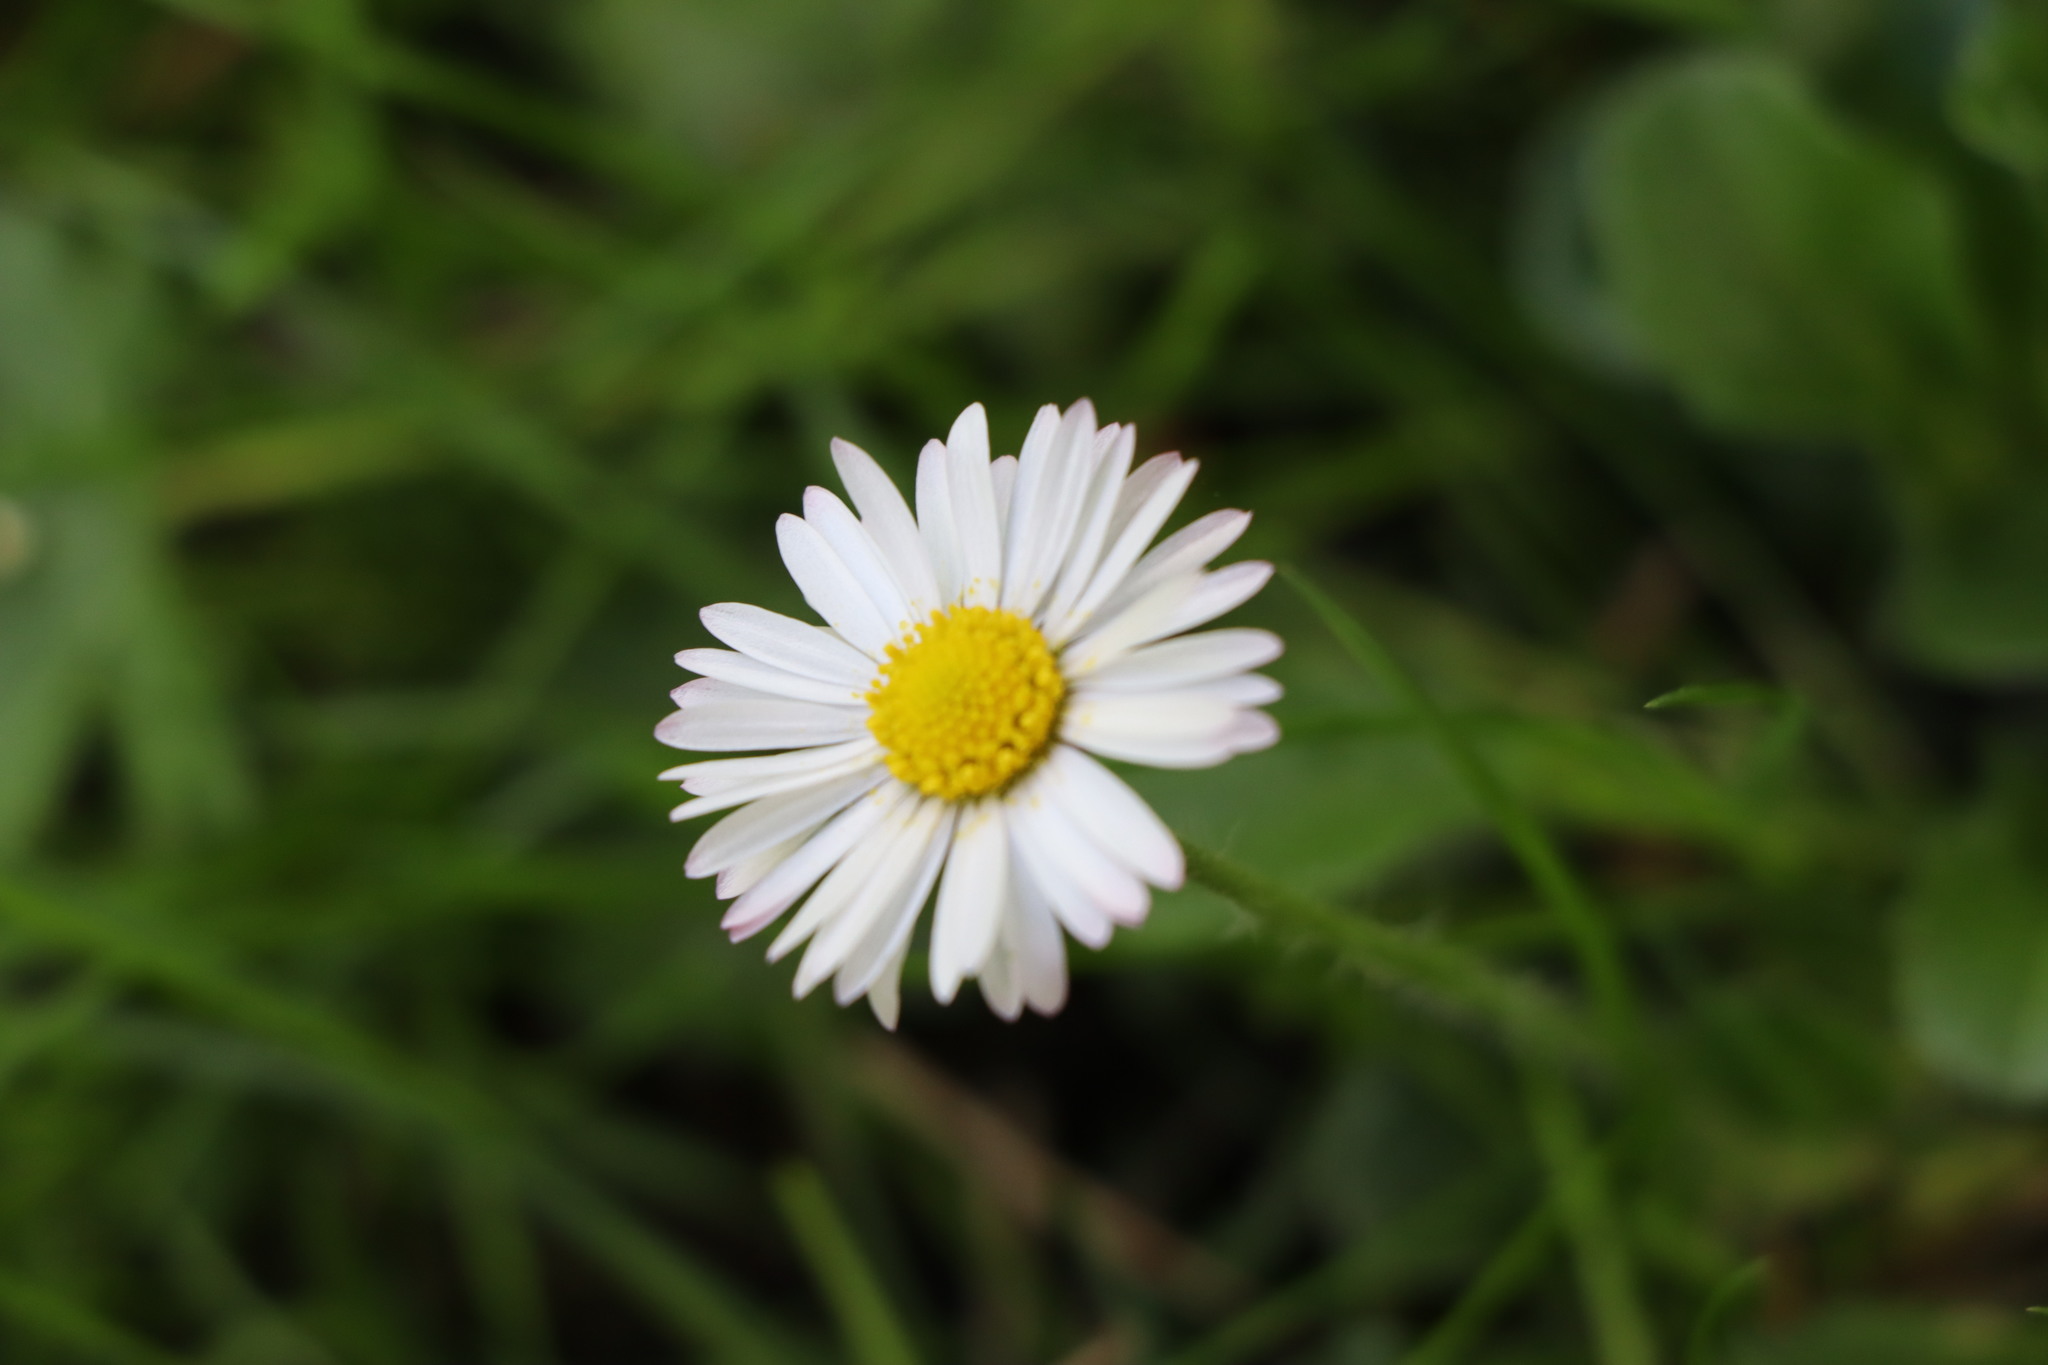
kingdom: Plantae
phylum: Tracheophyta
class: Magnoliopsida
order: Asterales
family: Asteraceae
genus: Bellis
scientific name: Bellis perennis
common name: Lawndaisy
